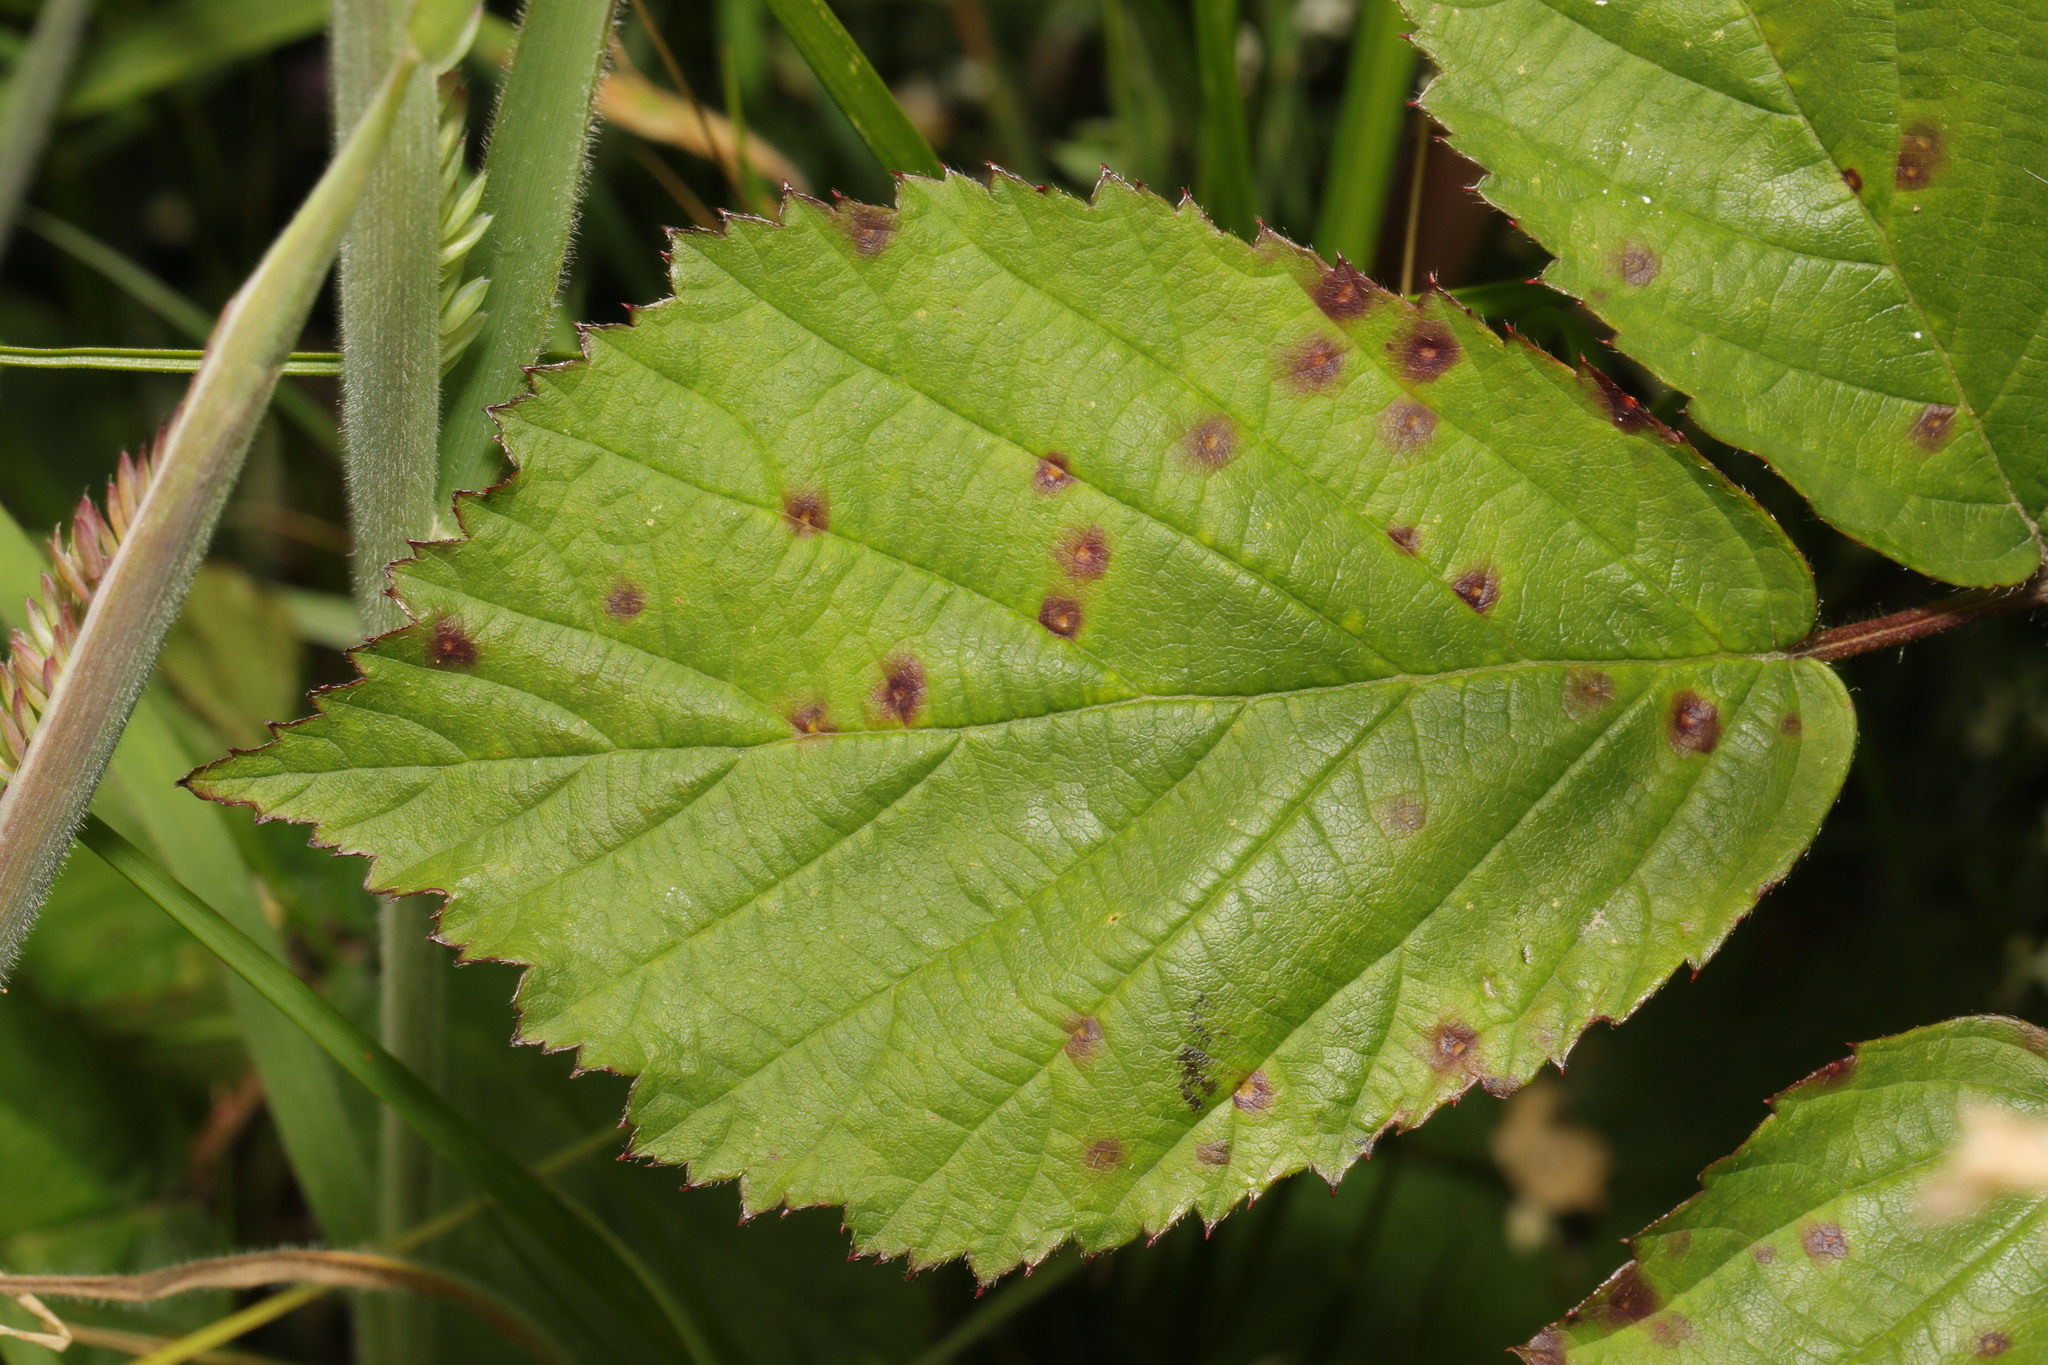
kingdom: Fungi
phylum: Basidiomycota
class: Pucciniomycetes
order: Pucciniales
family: Phragmidiaceae
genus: Phragmidium
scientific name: Phragmidium violaceum
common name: Violet bramble rust
